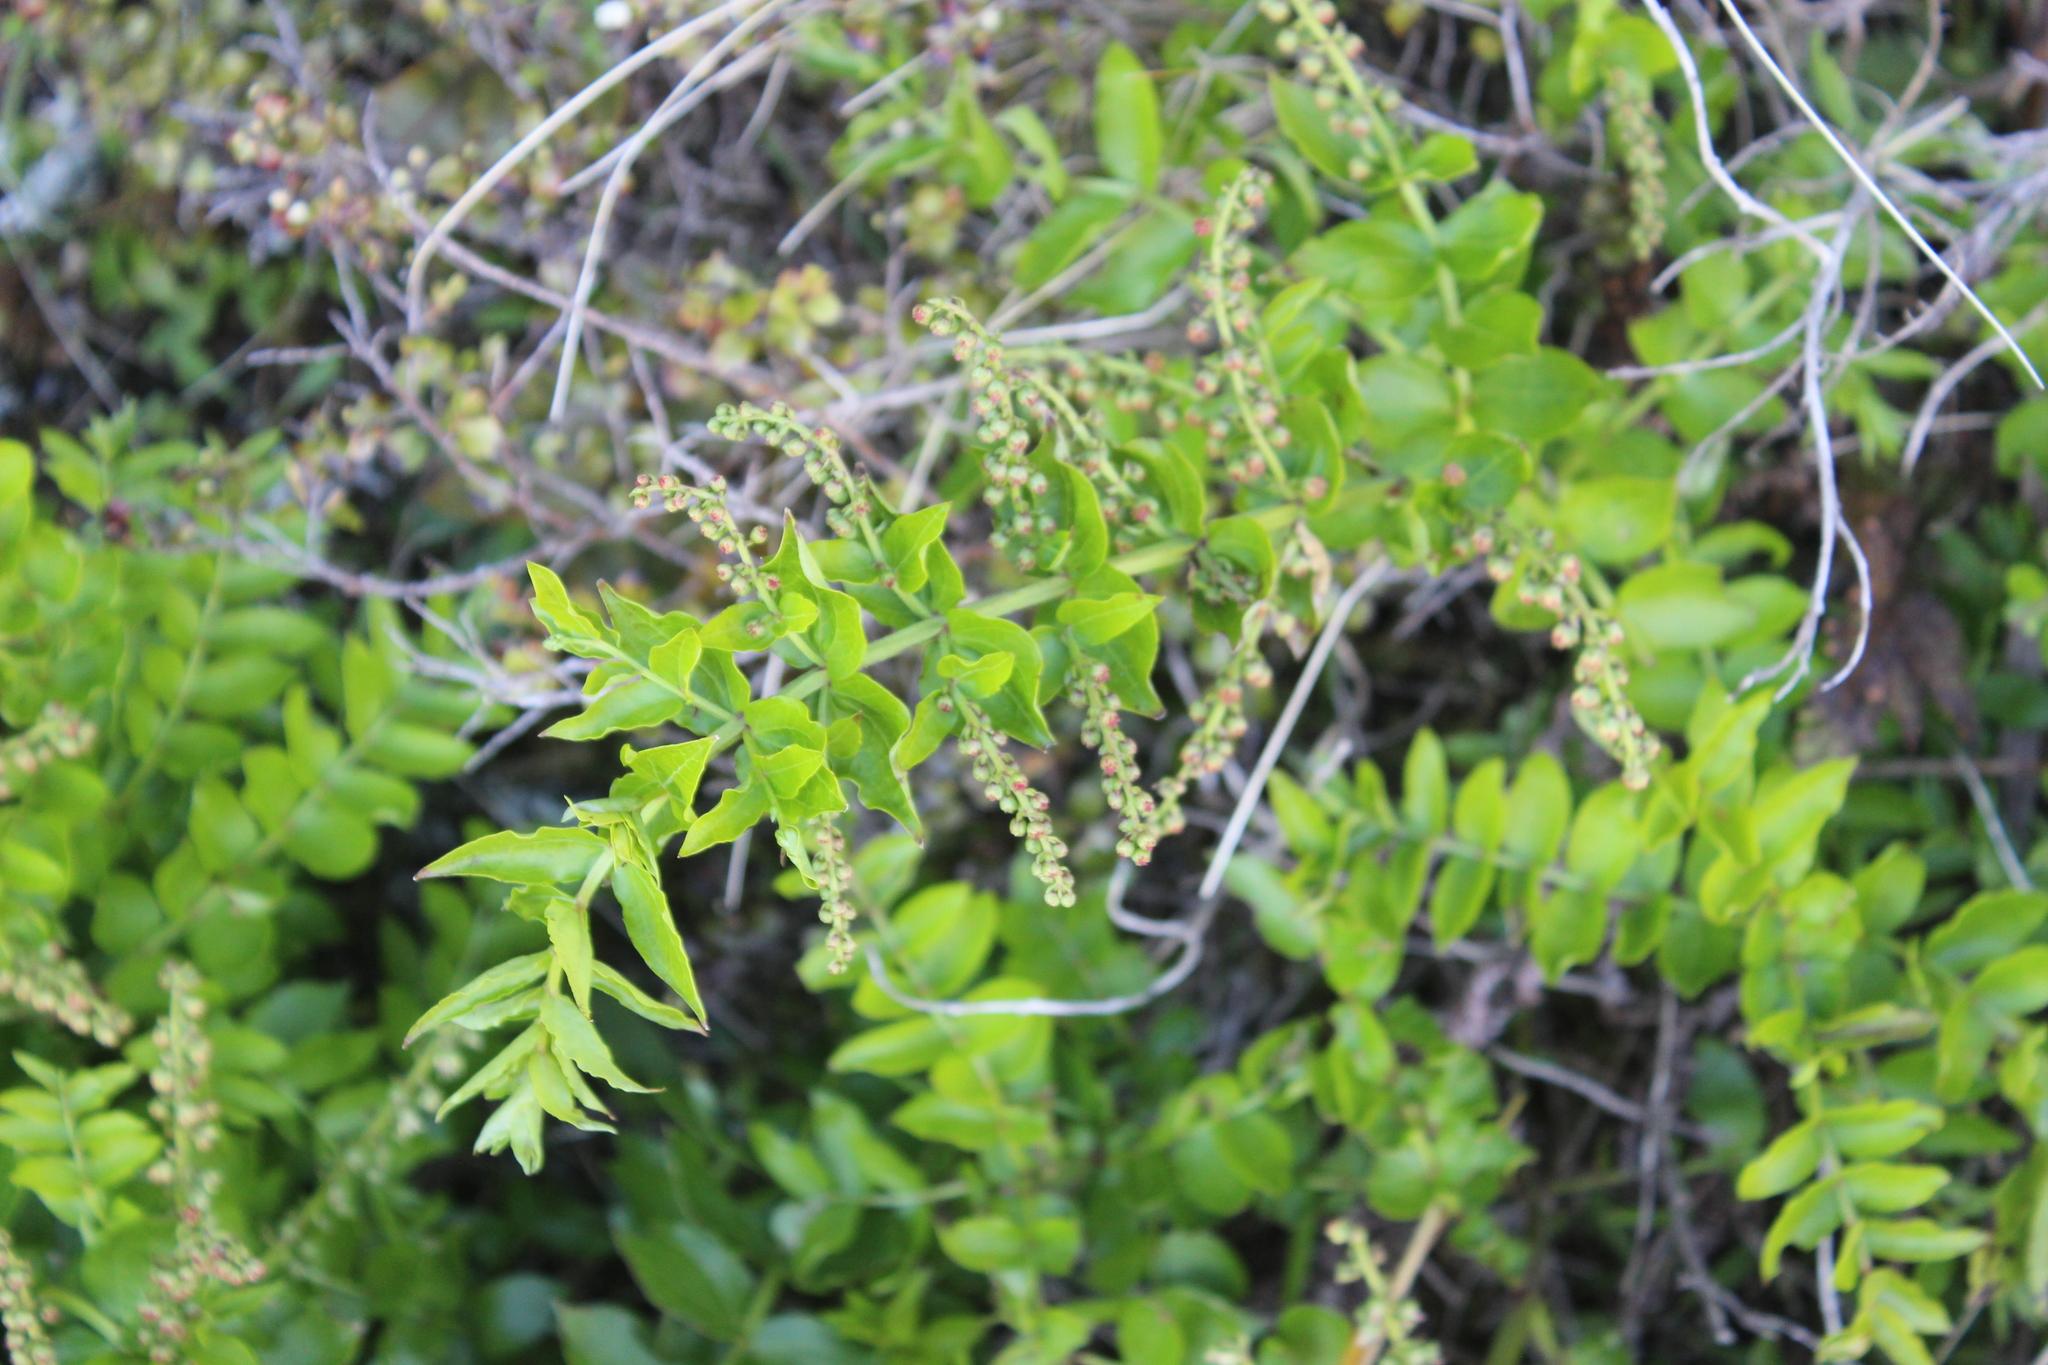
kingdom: Plantae
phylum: Tracheophyta
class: Magnoliopsida
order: Cucurbitales
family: Coriariaceae
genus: Coriaria
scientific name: Coriaria sarmentosa
